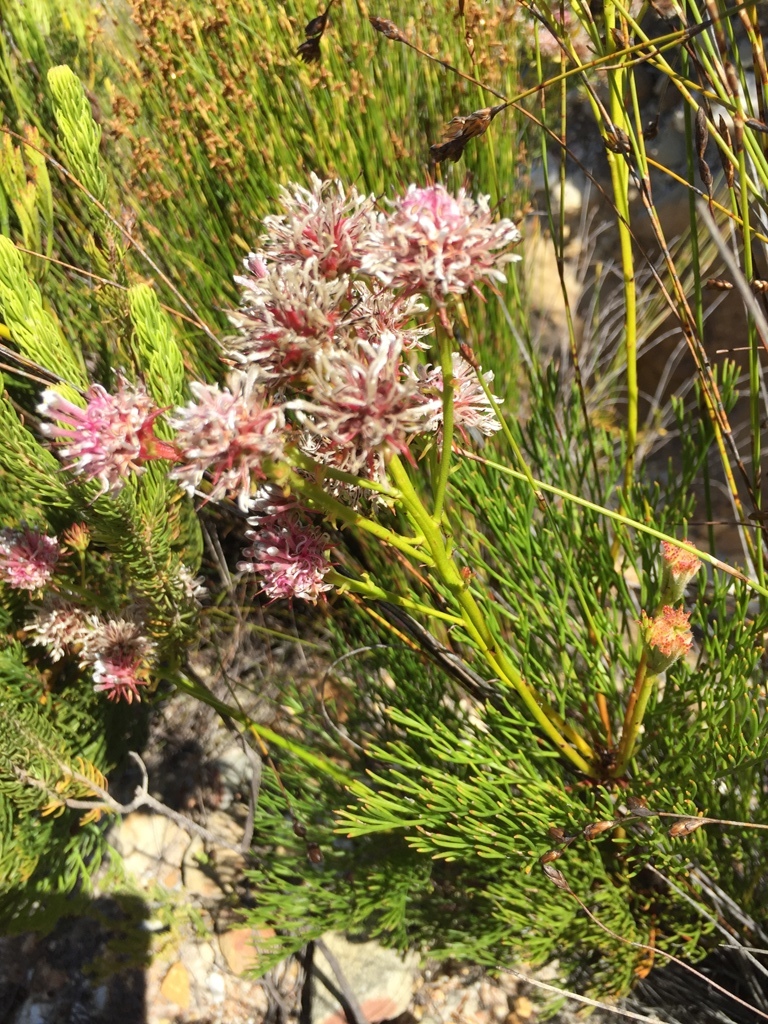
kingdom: Plantae
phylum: Tracheophyta
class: Magnoliopsida
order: Proteales
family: Proteaceae
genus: Serruria
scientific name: Serruria elongata
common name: Long-stalk spiderhead
